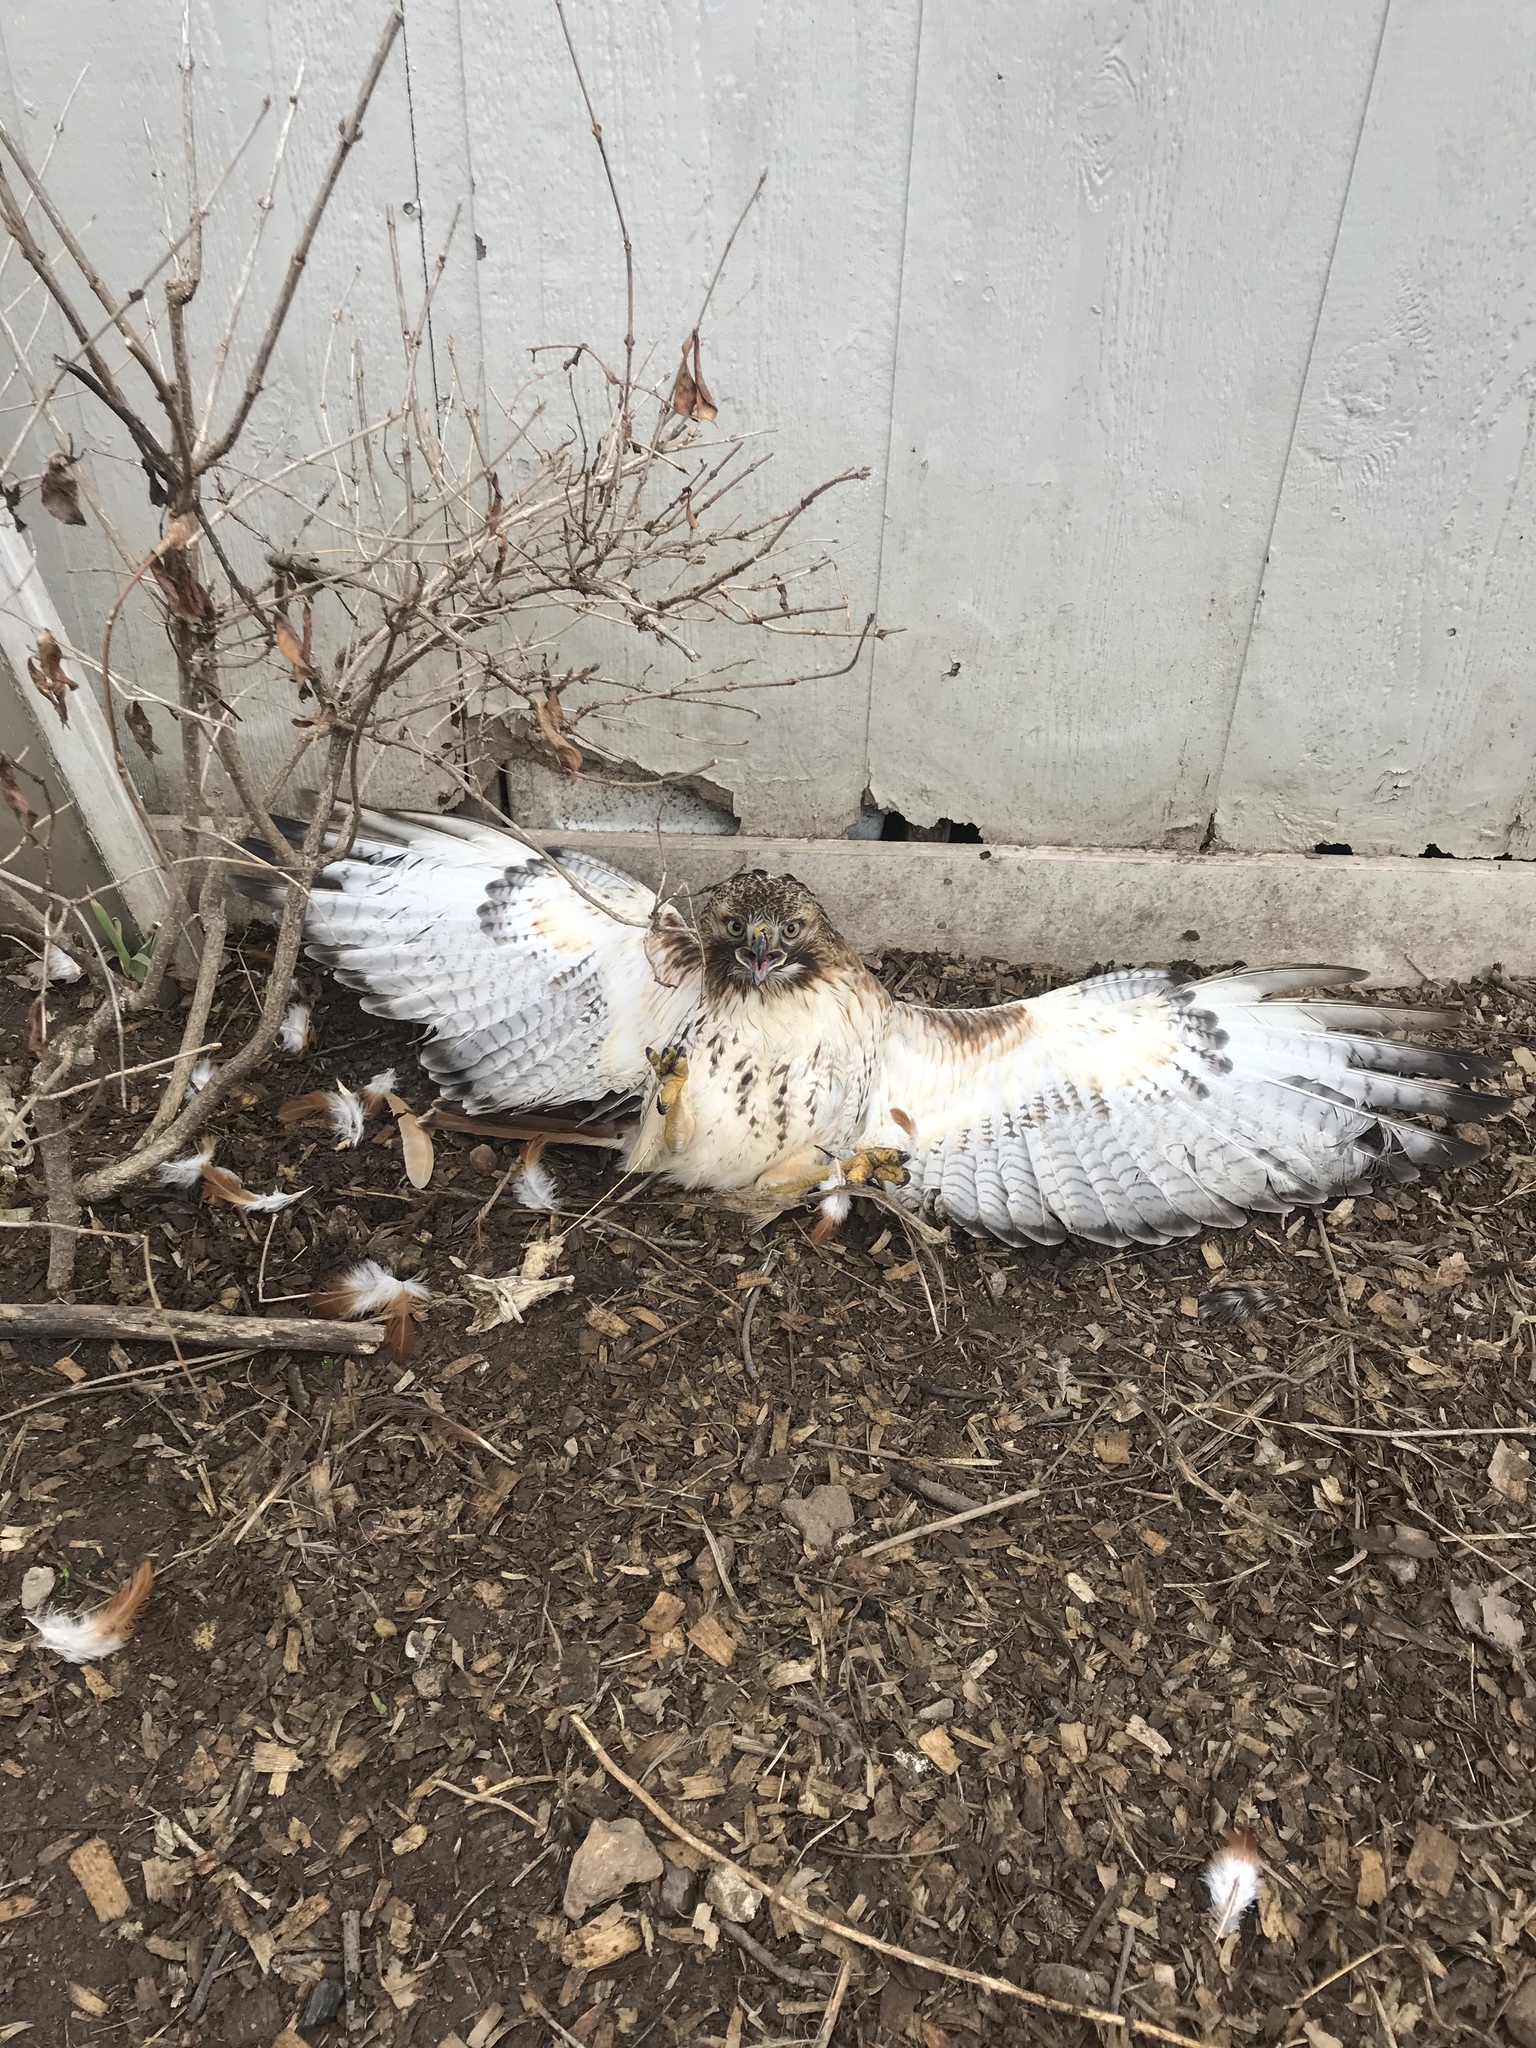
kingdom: Animalia
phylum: Chordata
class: Aves
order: Accipitriformes
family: Accipitridae
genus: Buteo
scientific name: Buteo jamaicensis
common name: Red-tailed hawk
